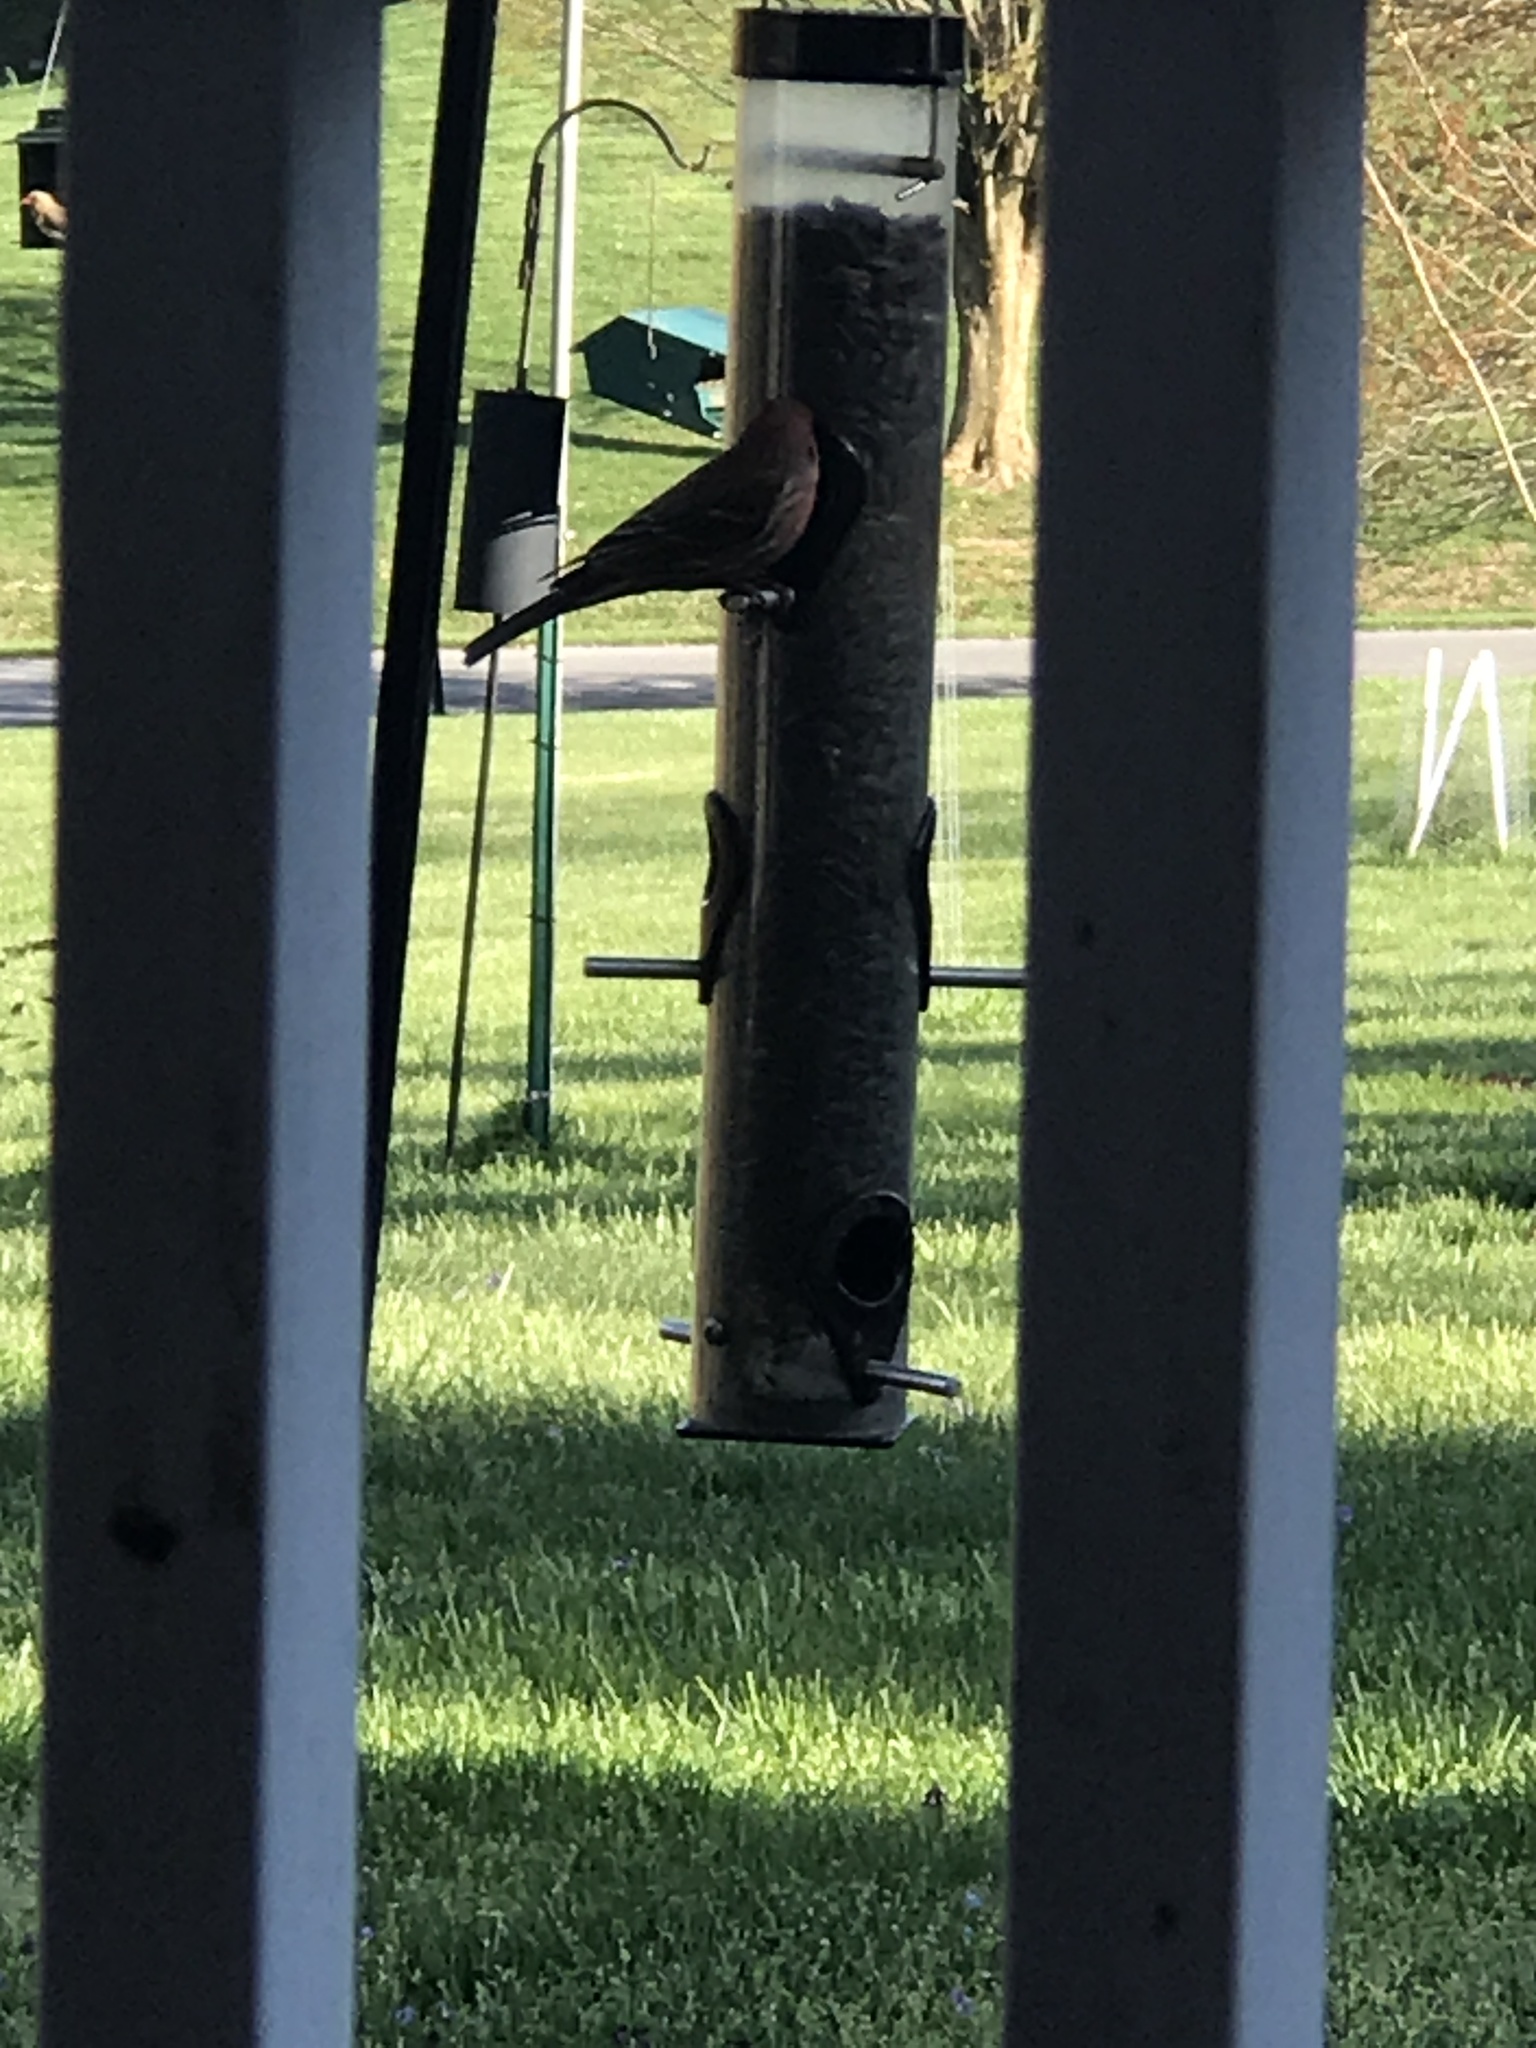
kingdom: Animalia
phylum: Chordata
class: Aves
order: Passeriformes
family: Fringillidae
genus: Haemorhous
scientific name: Haemorhous mexicanus
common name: House finch
